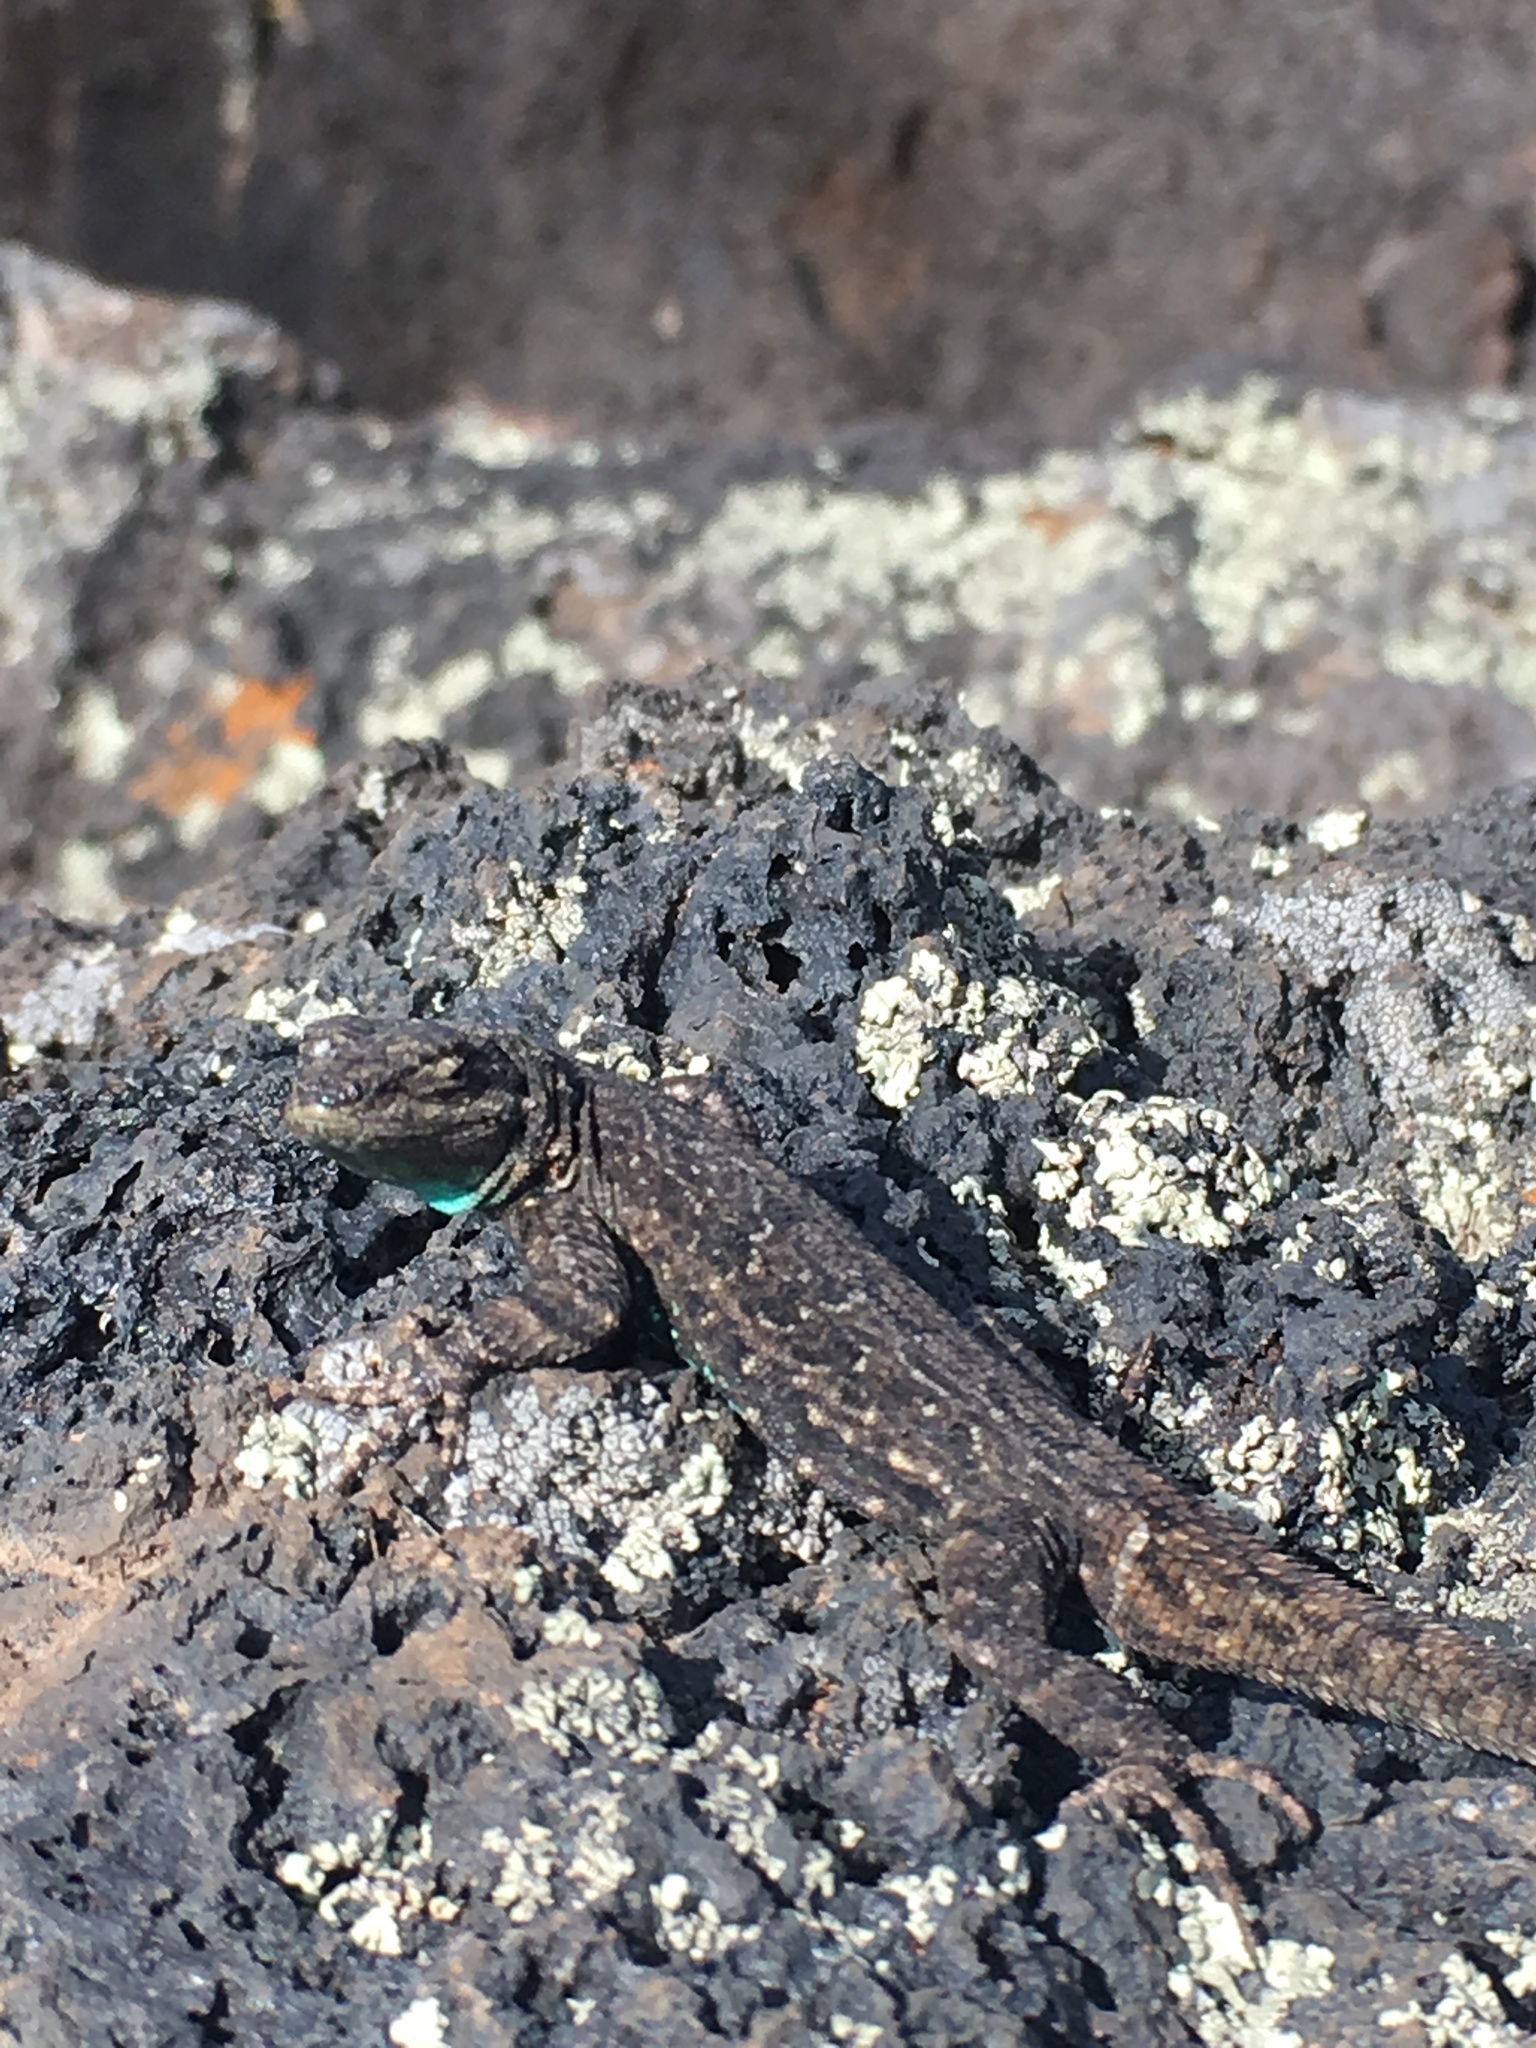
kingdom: Animalia
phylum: Chordata
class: Squamata
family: Phrynosomatidae
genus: Urosaurus
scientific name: Urosaurus ornatus
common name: Ornate tree lizard
